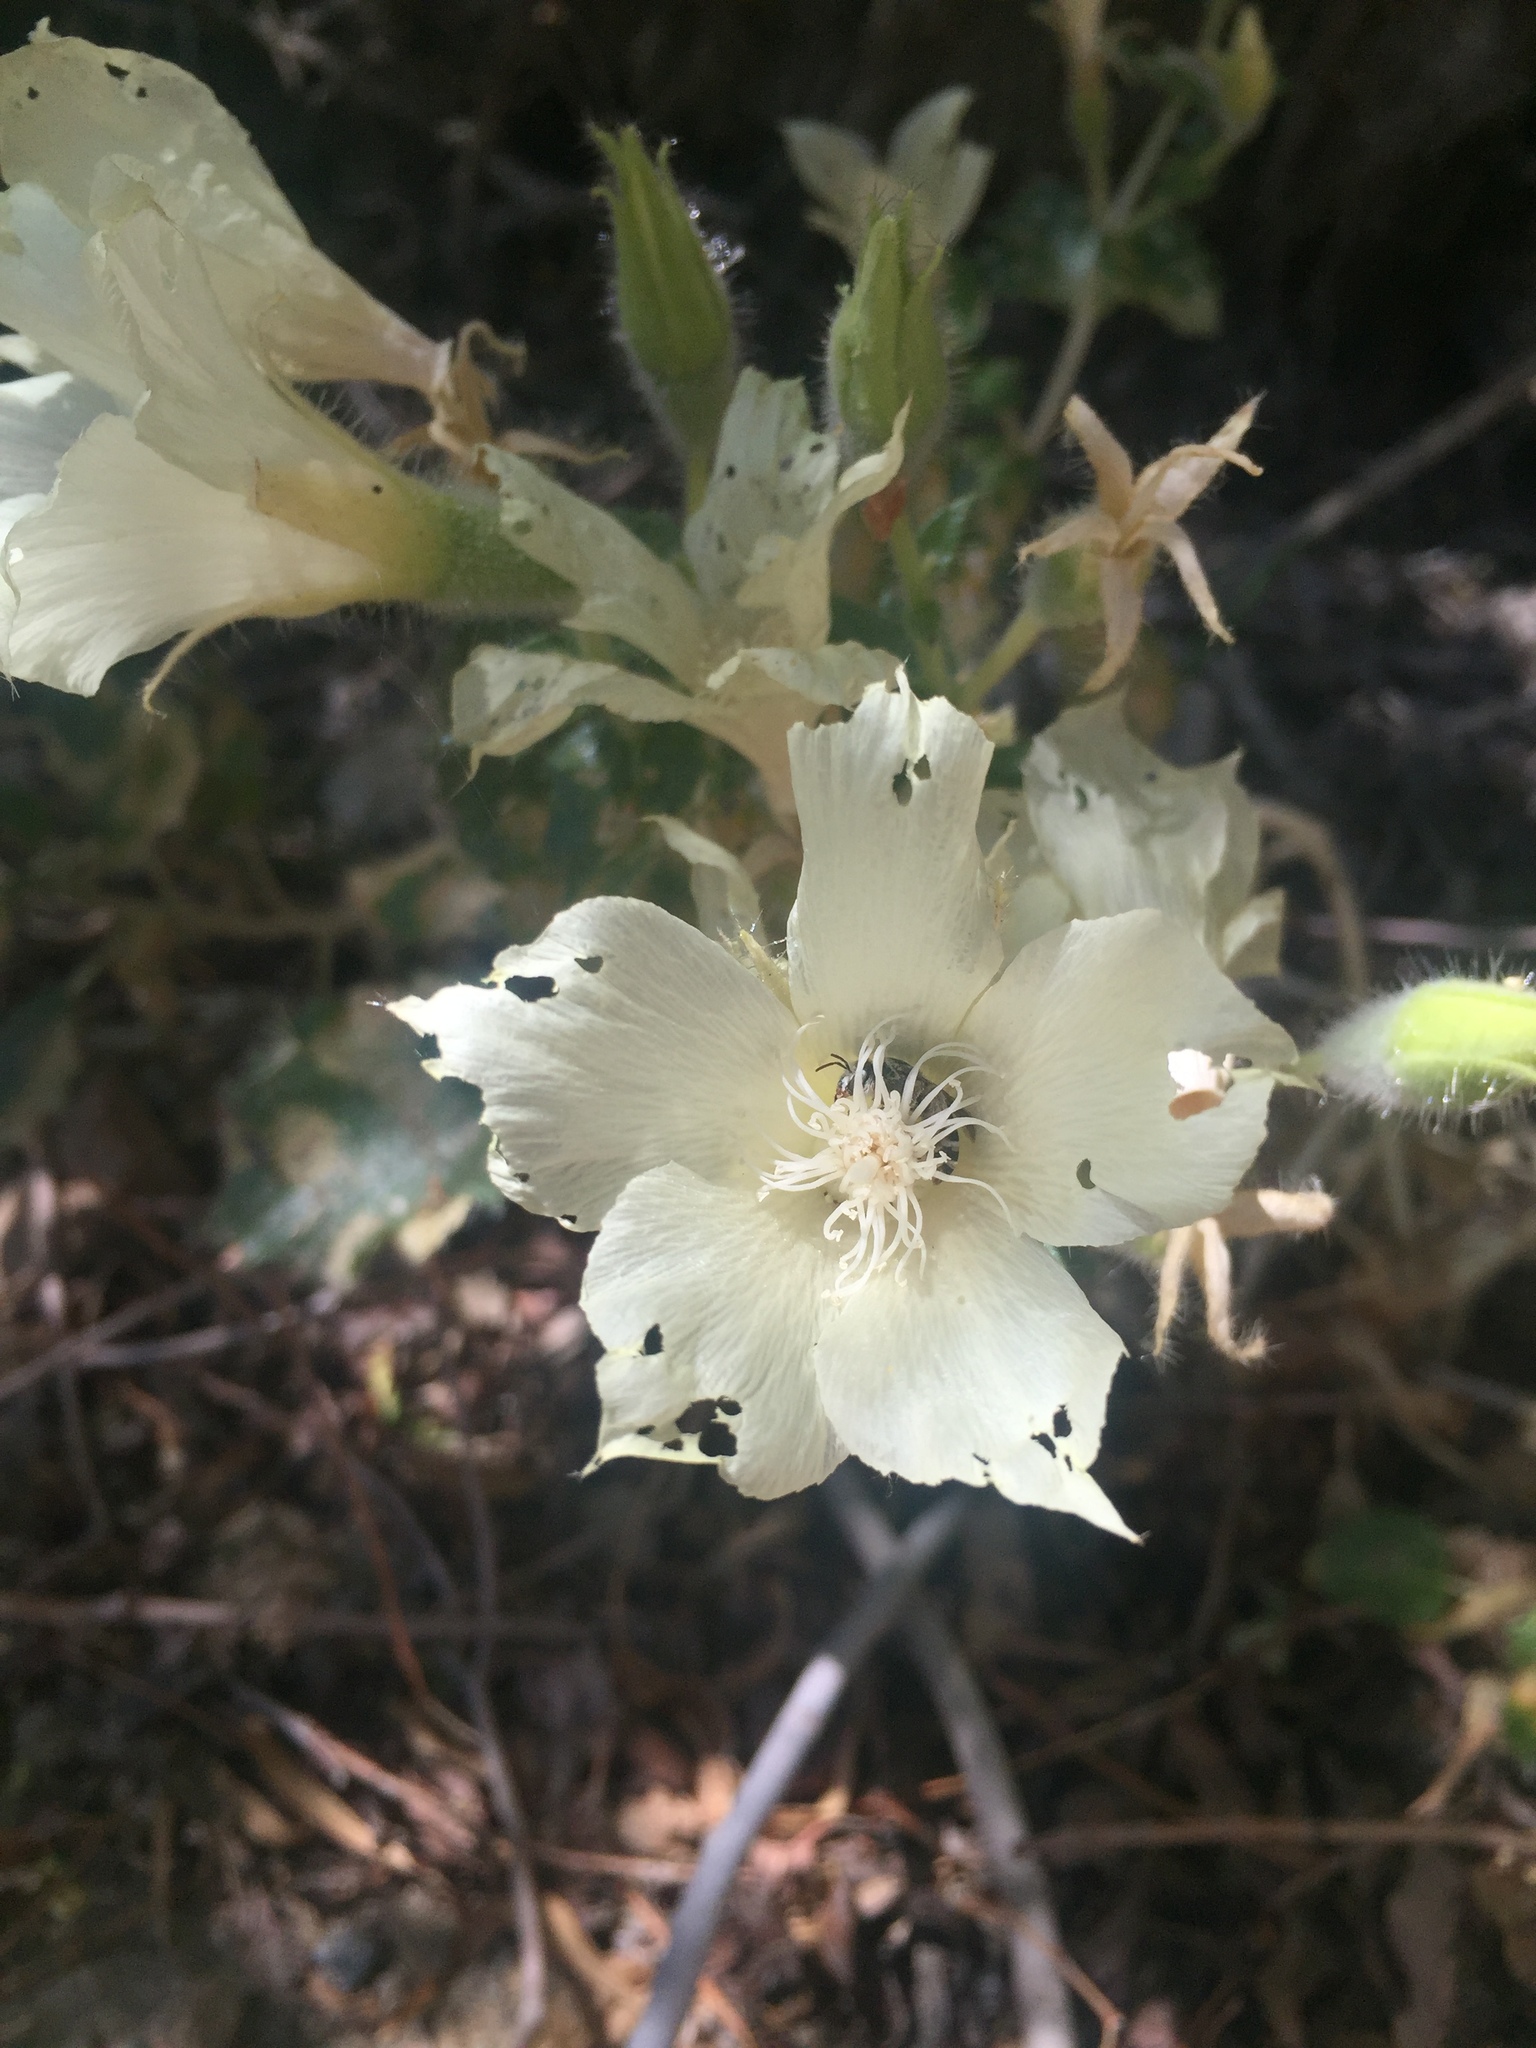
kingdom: Plantae
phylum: Tracheophyta
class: Magnoliopsida
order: Cornales
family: Loasaceae
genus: Eucnide
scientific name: Eucnide urens
